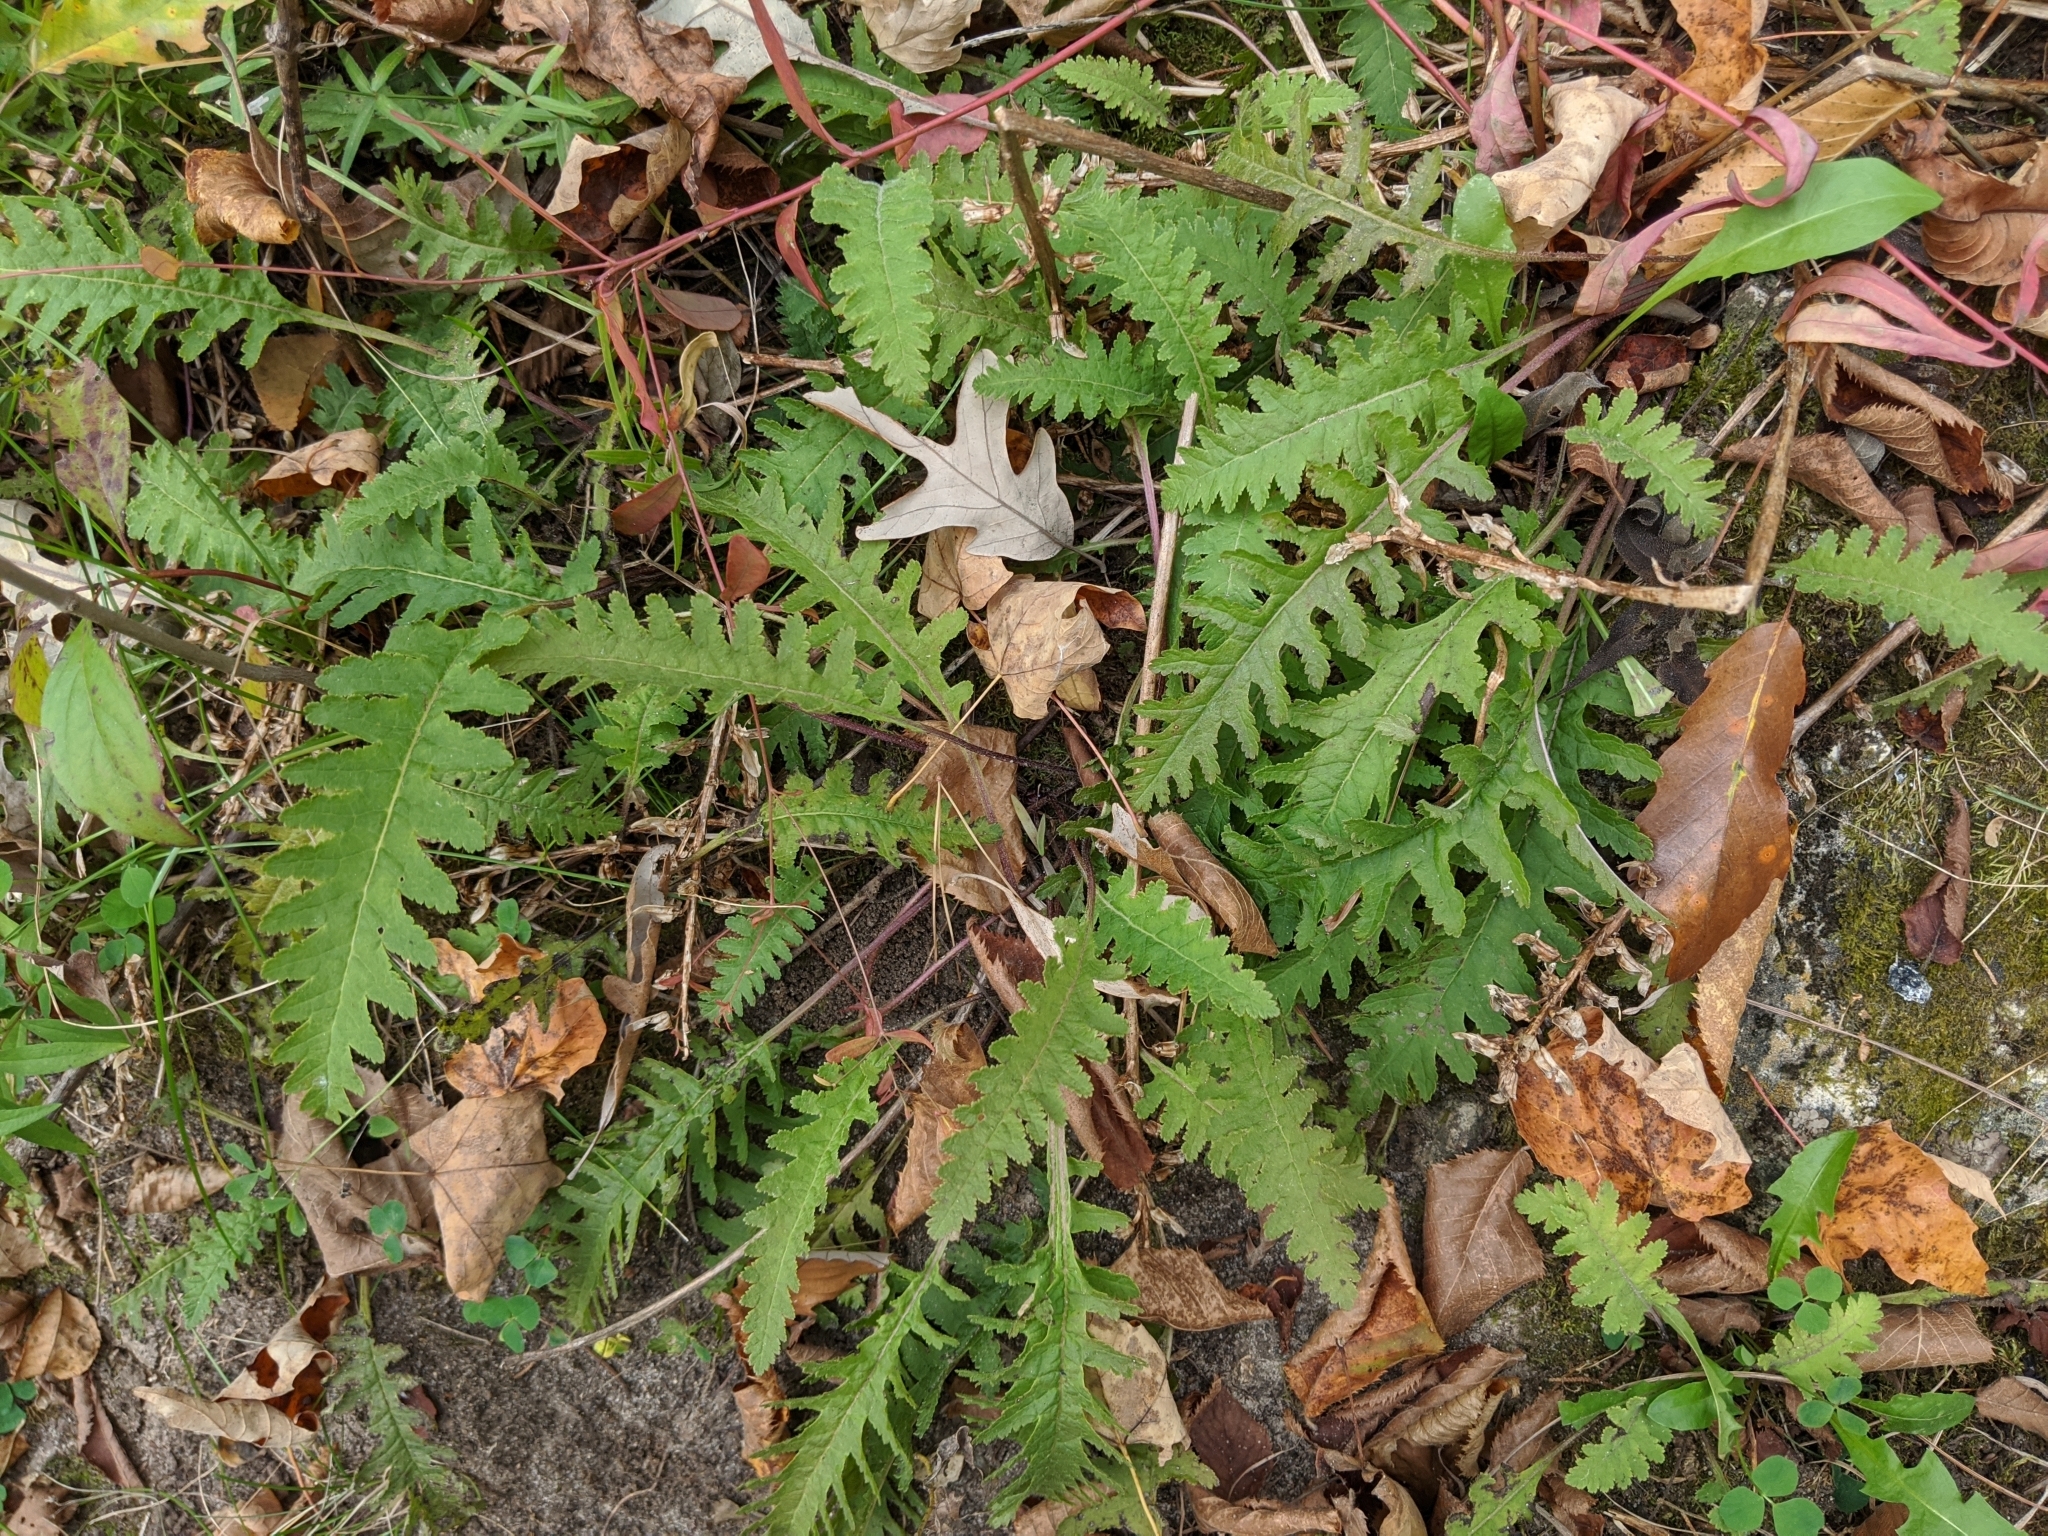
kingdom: Plantae
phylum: Tracheophyta
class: Magnoliopsida
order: Lamiales
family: Orobanchaceae
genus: Pedicularis
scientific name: Pedicularis canadensis
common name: Early lousewort
